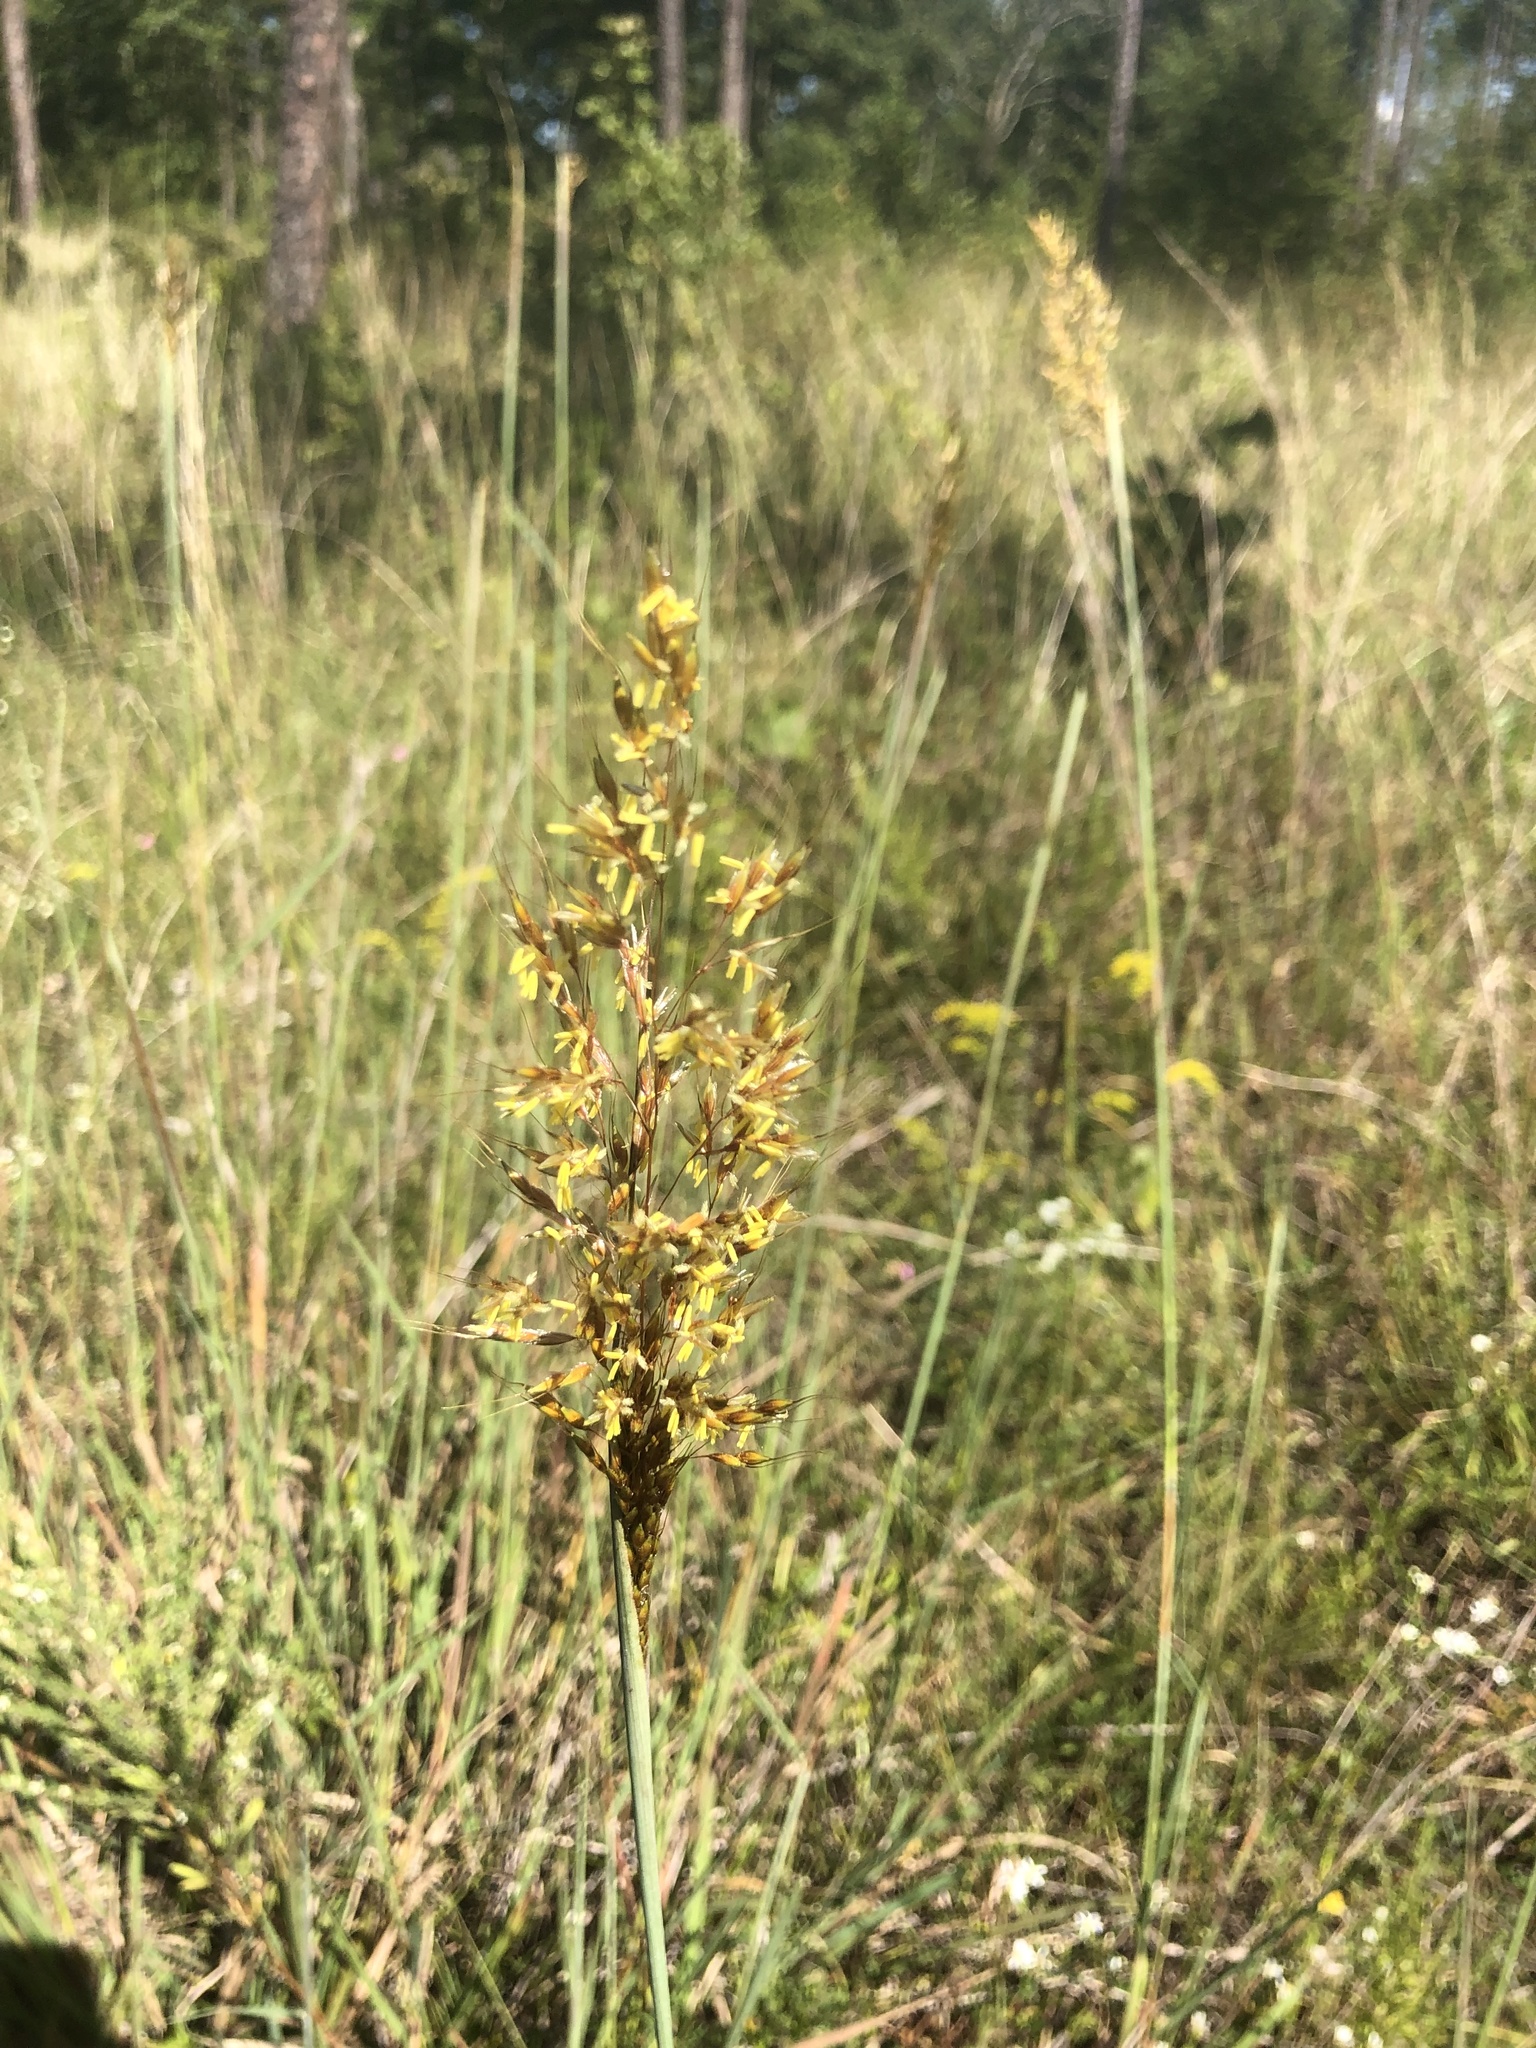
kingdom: Plantae
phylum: Tracheophyta
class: Liliopsida
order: Poales
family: Poaceae
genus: Sorghastrum
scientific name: Sorghastrum nutans
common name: Indian grass
